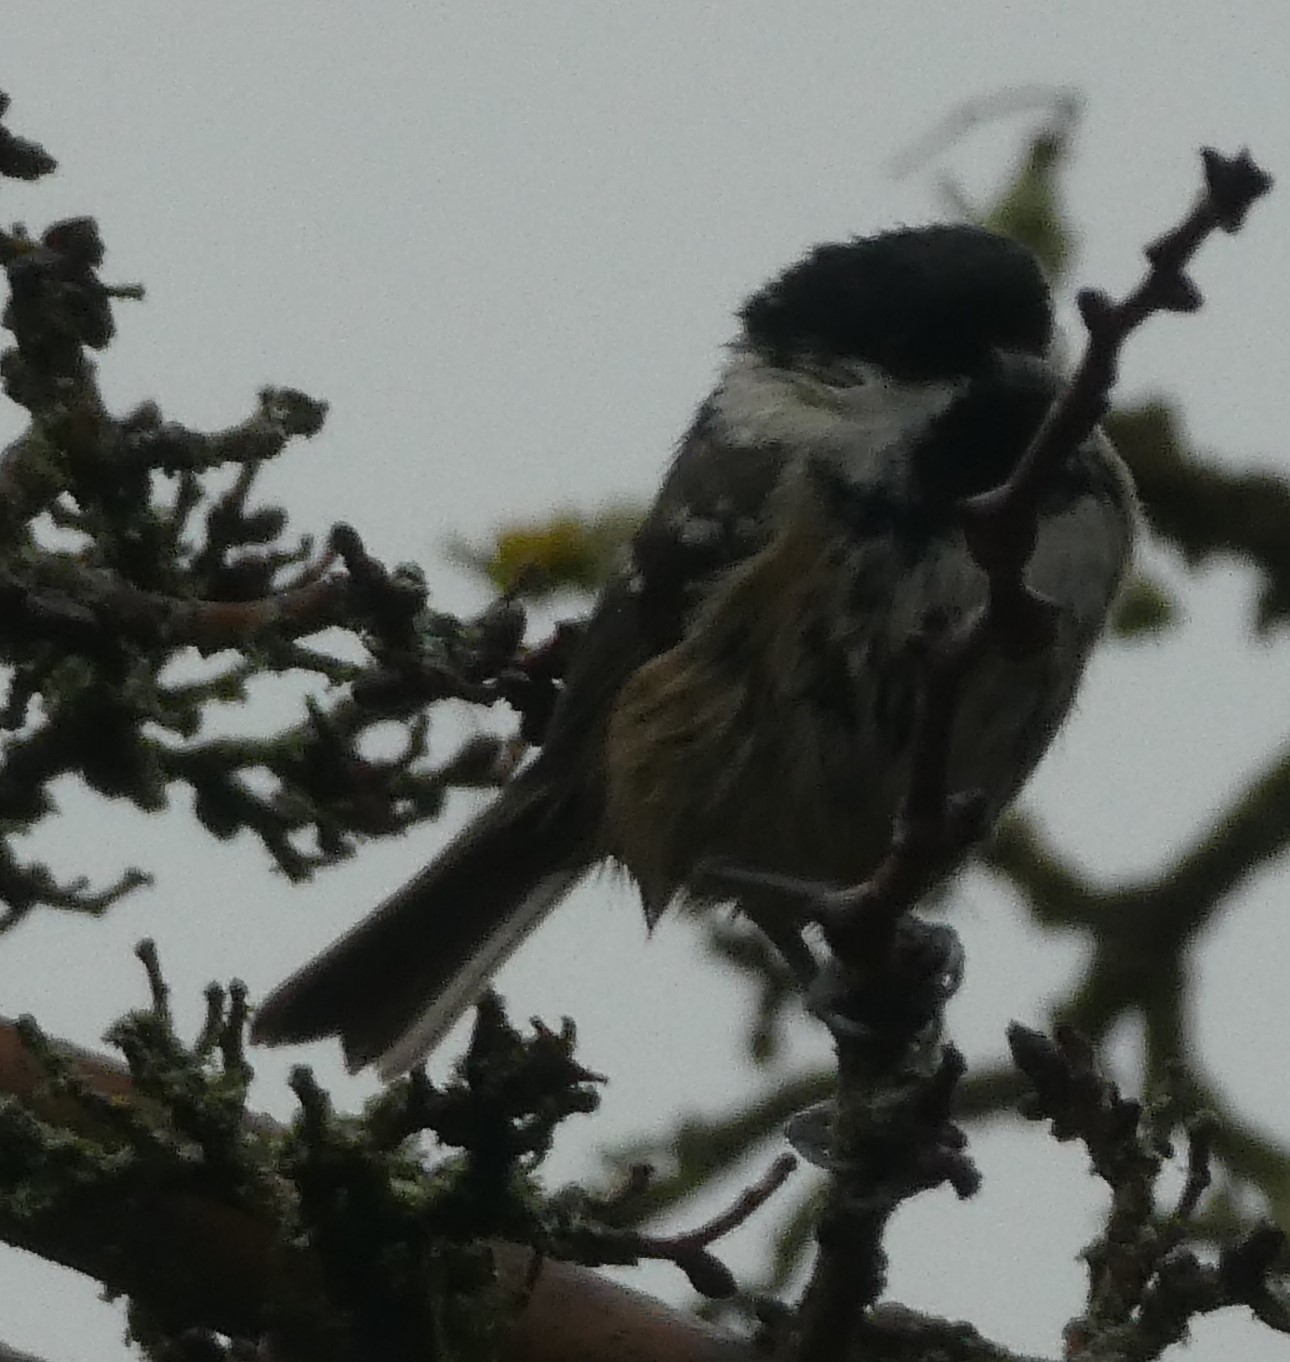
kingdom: Animalia
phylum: Chordata
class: Aves
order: Passeriformes
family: Paridae
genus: Periparus
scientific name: Periparus ater
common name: Coal tit
